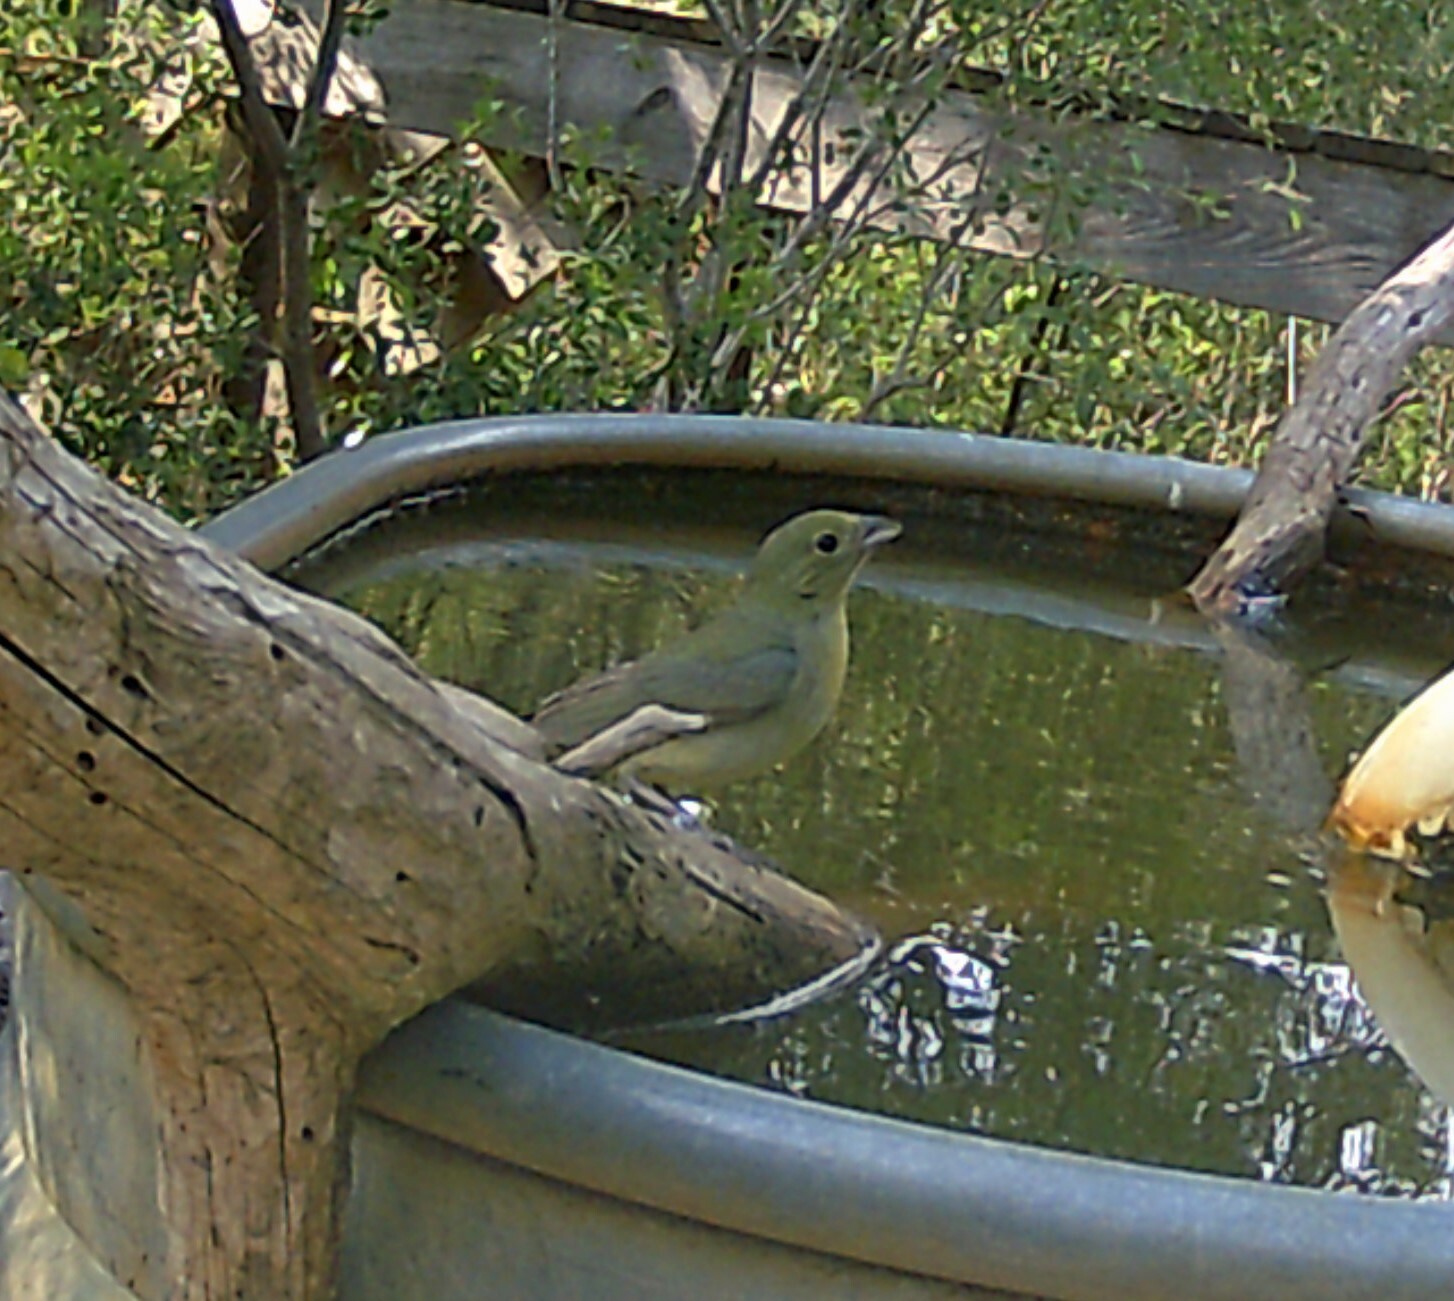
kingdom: Animalia
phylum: Chordata
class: Aves
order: Passeriformes
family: Cardinalidae
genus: Passerina
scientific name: Passerina ciris
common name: Painted bunting
